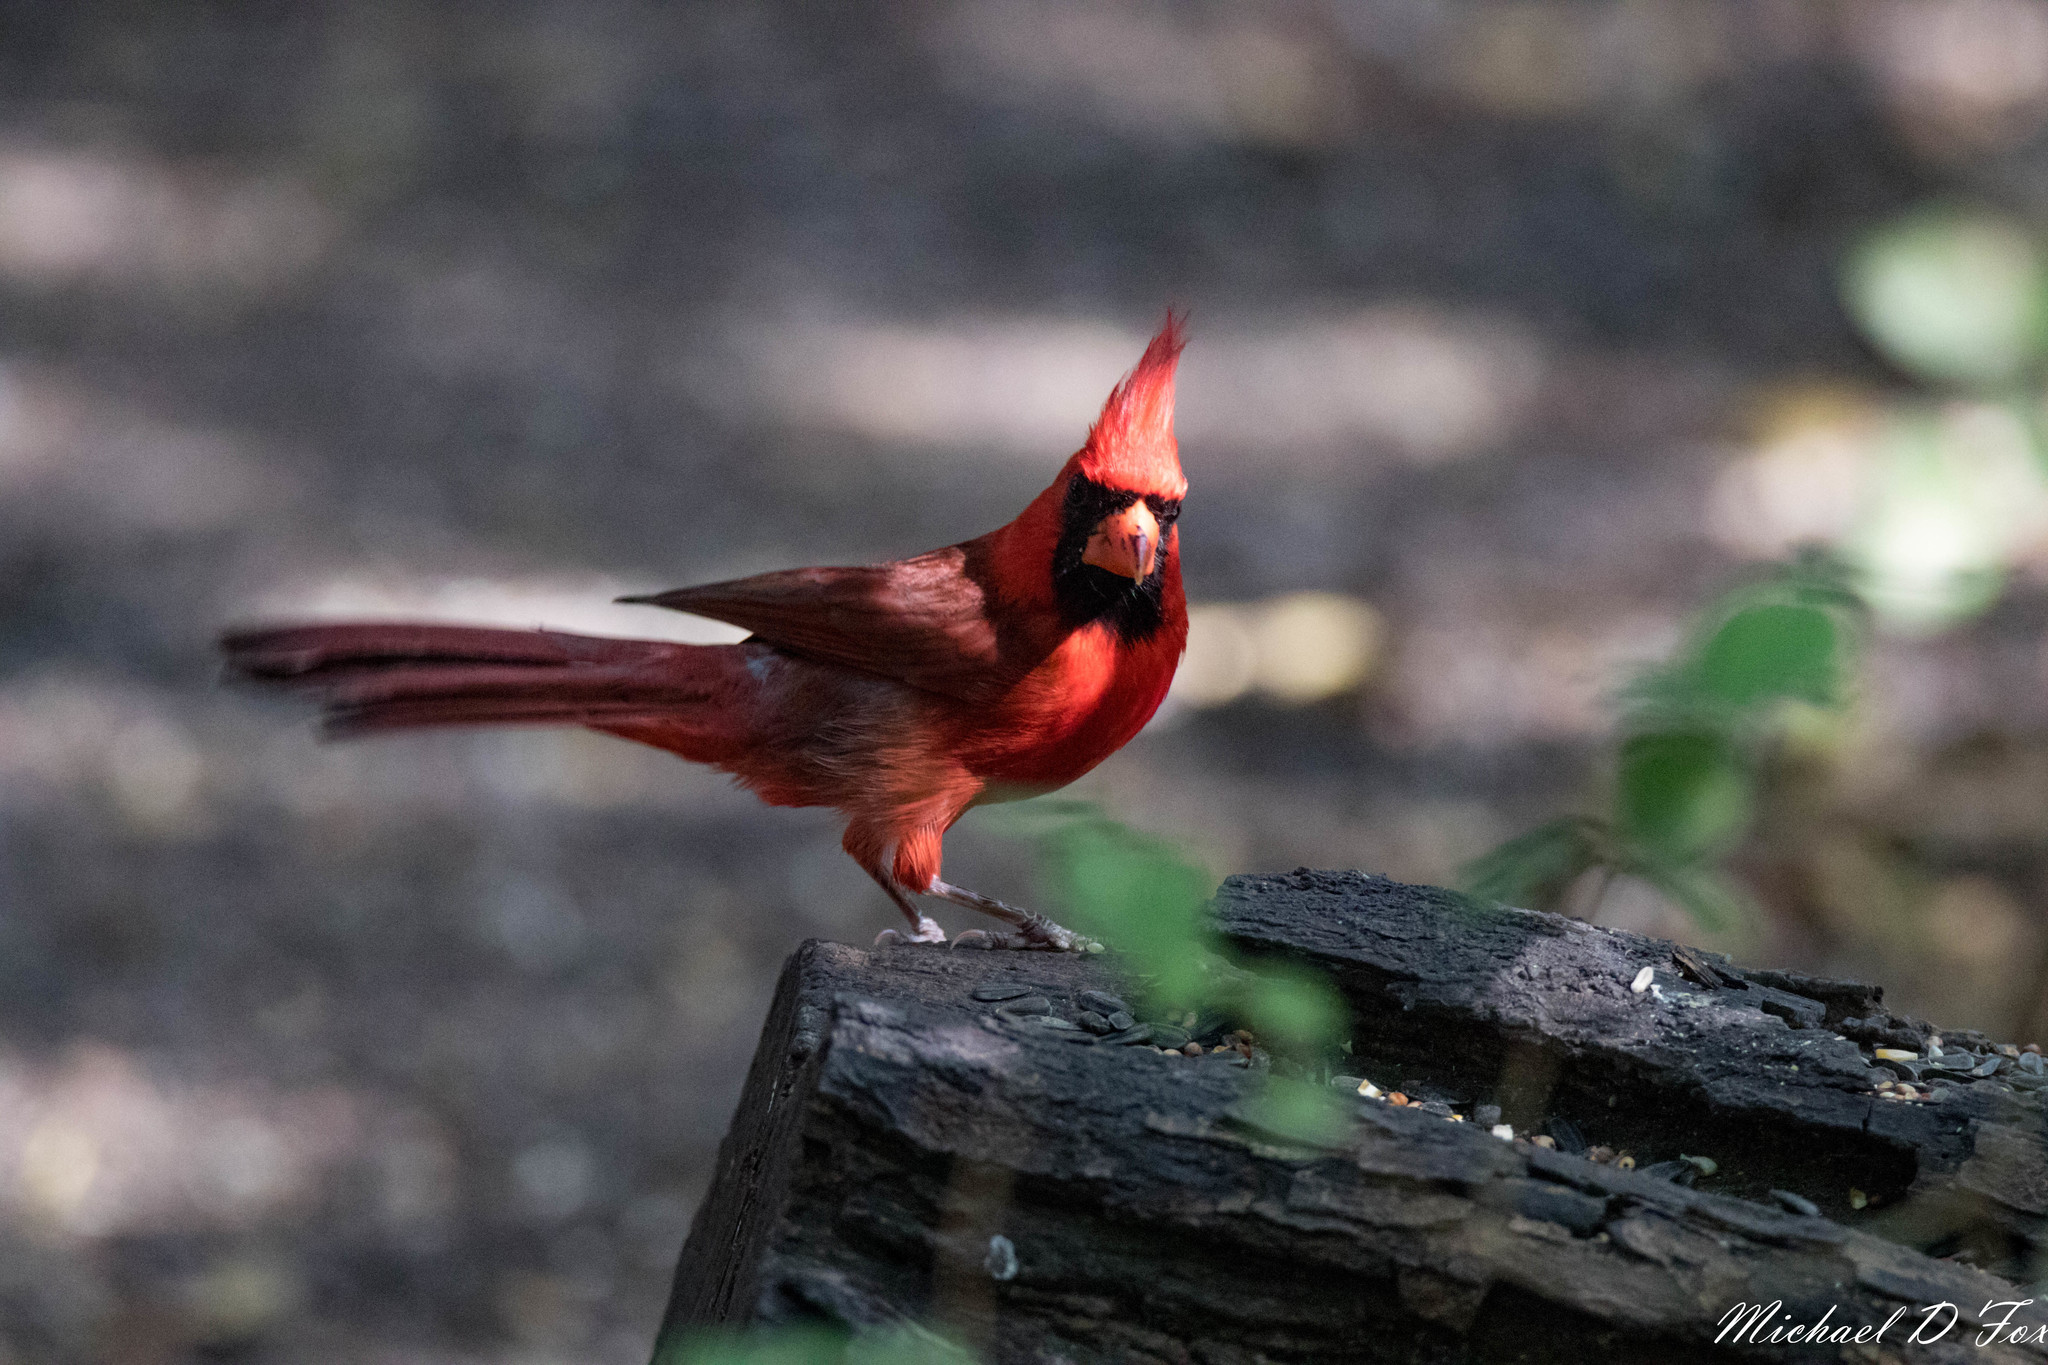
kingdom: Animalia
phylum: Chordata
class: Aves
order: Passeriformes
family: Cardinalidae
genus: Cardinalis
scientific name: Cardinalis cardinalis
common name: Northern cardinal
